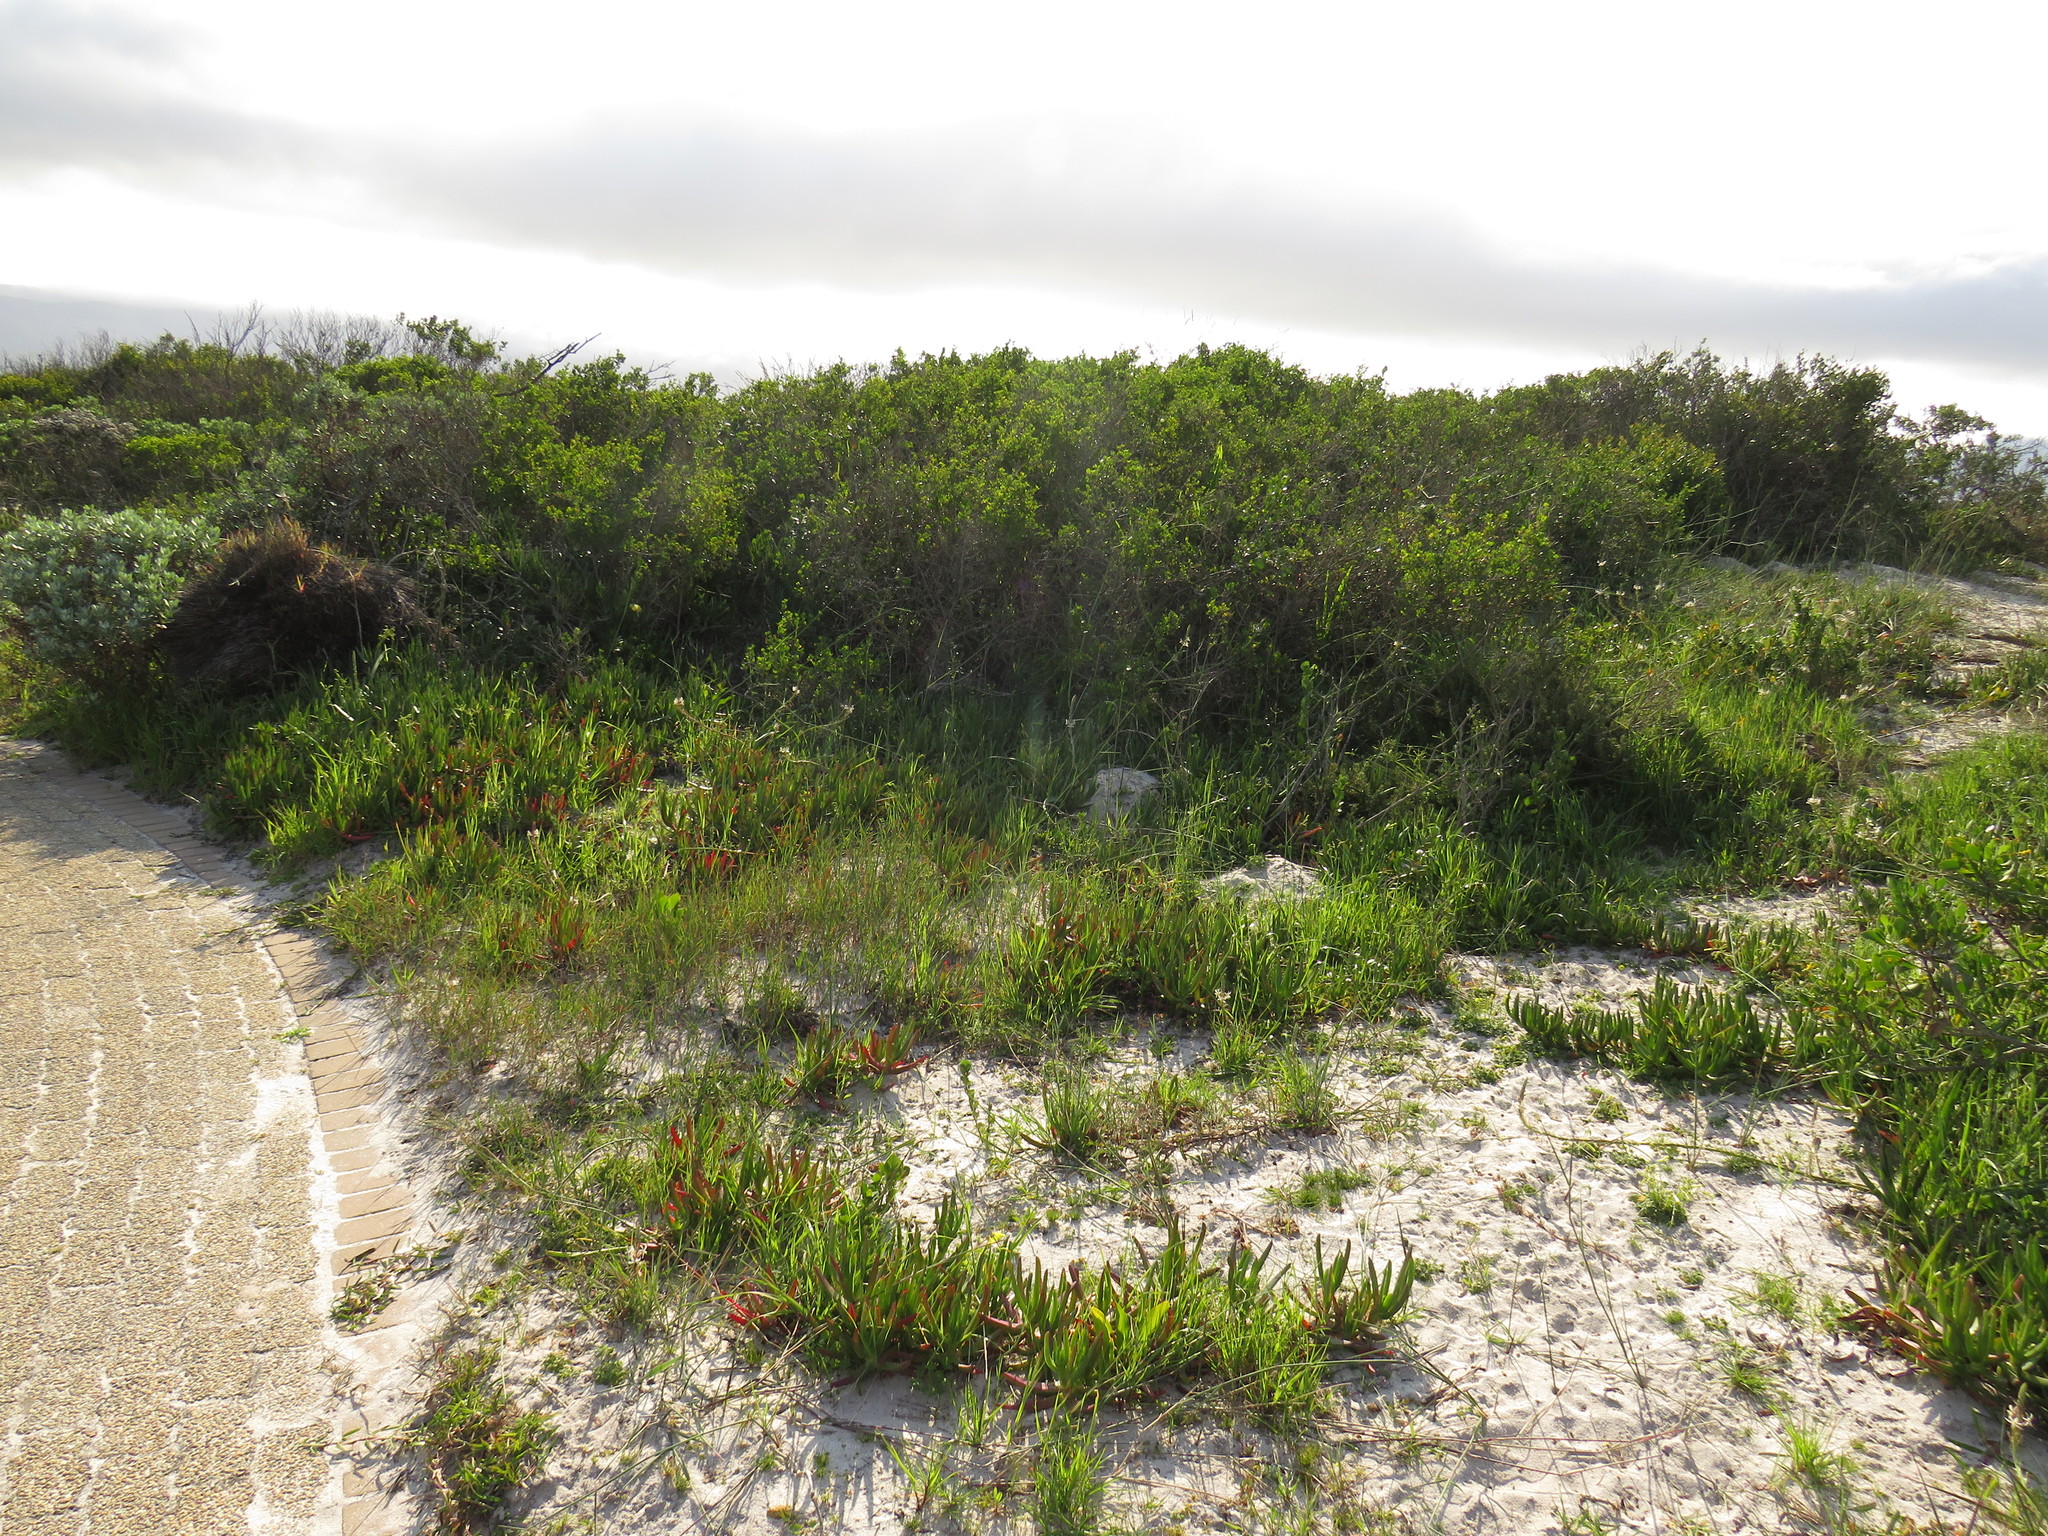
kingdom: Animalia
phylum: Chordata
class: Mammalia
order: Artiodactyla
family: Hippopotamidae
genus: Hippopotamus
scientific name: Hippopotamus amphibius
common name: Common hippopotamus
